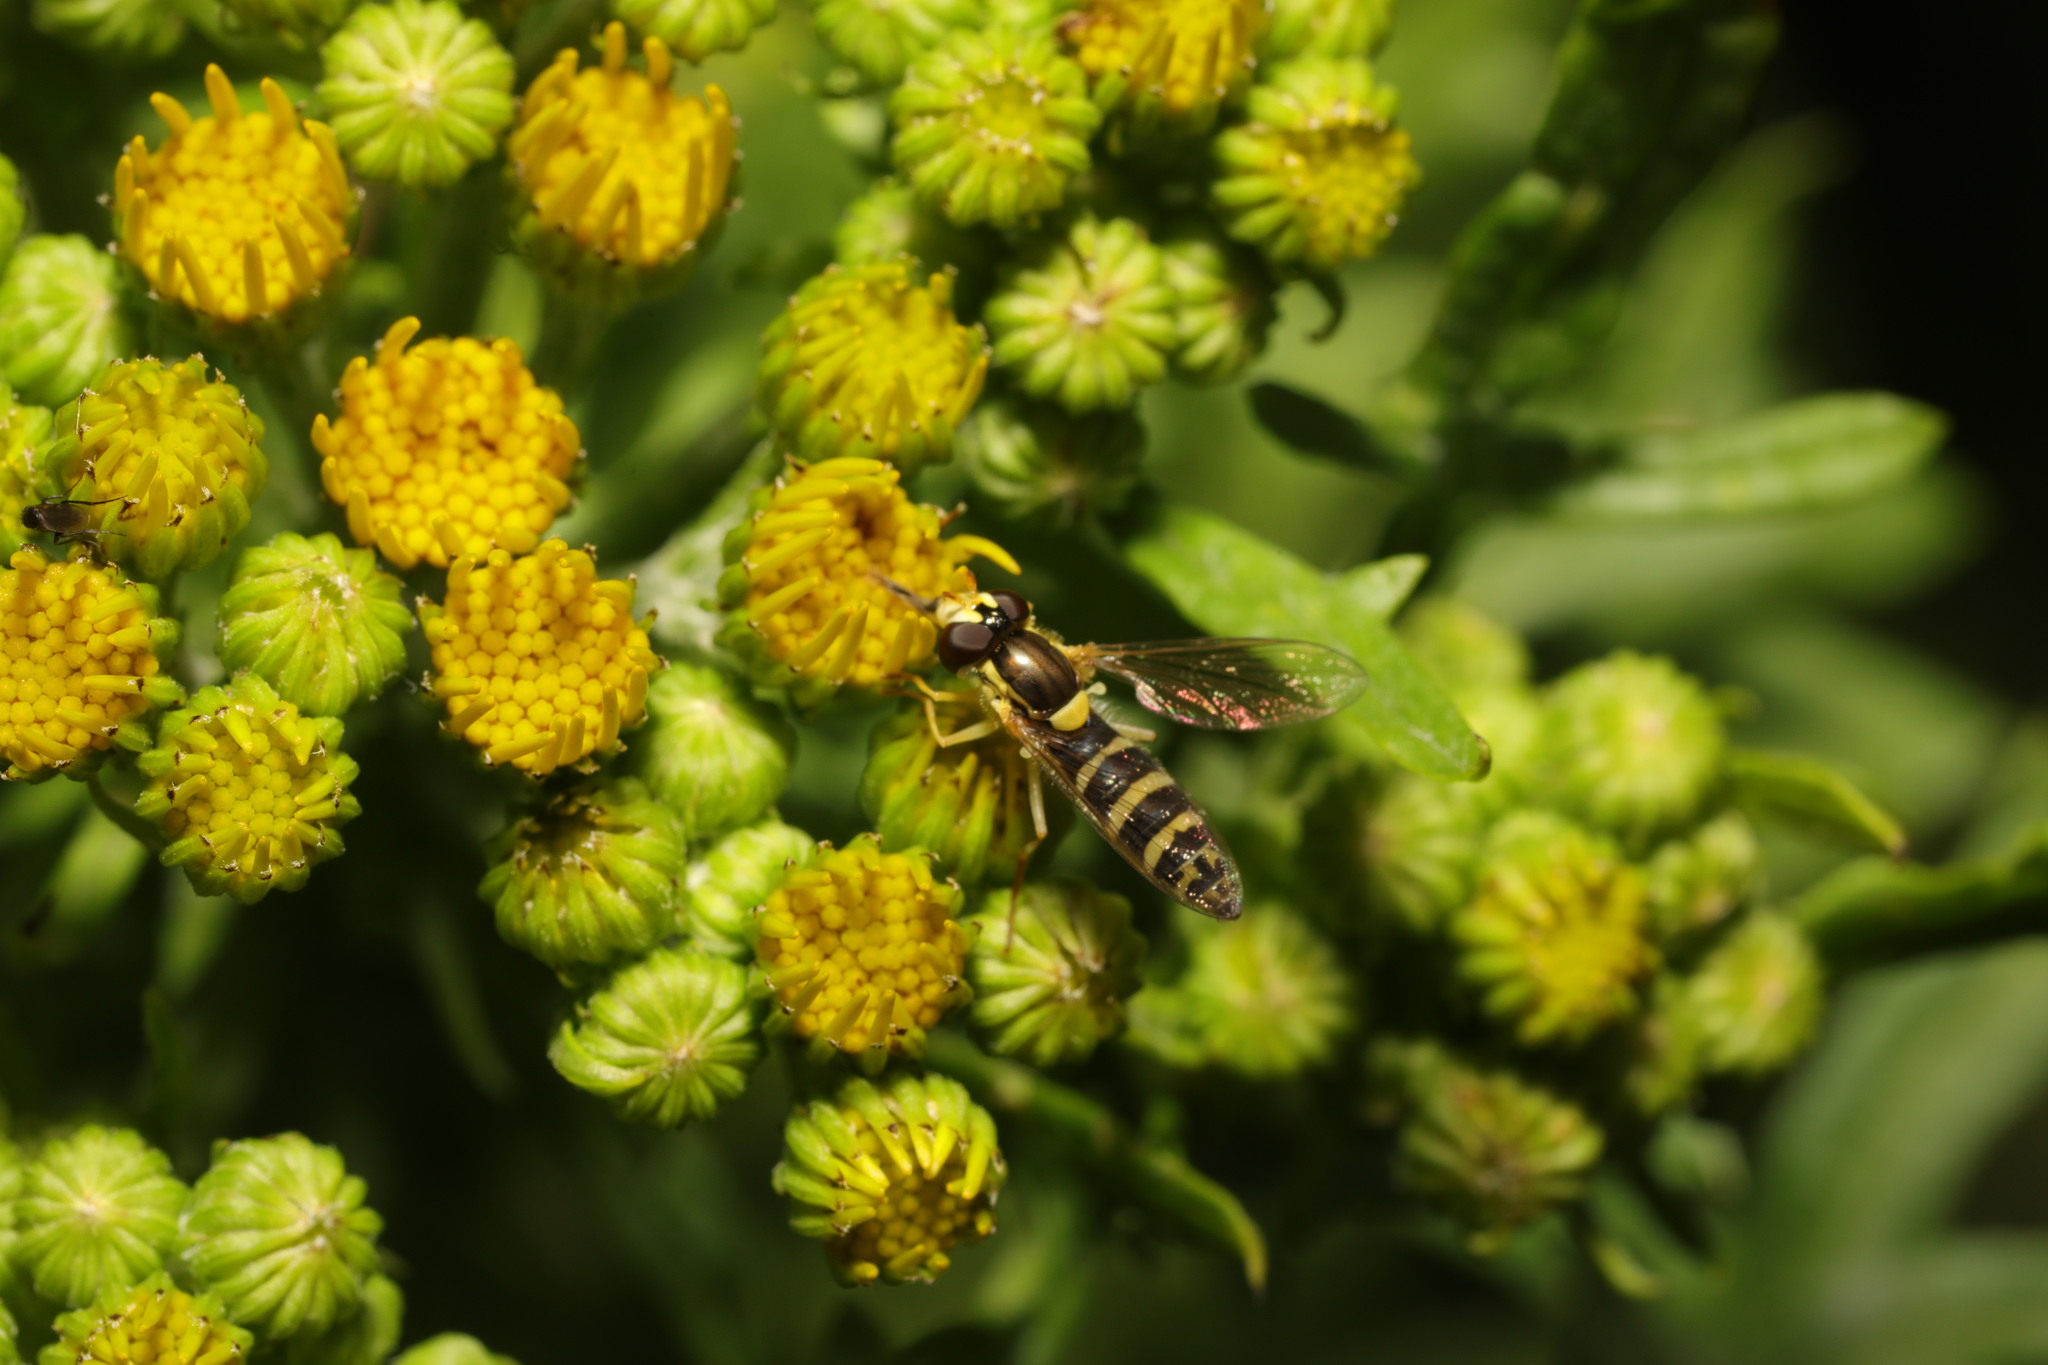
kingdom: Animalia
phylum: Arthropoda
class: Insecta
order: Diptera
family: Syrphidae
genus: Sphaerophoria
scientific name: Sphaerophoria
